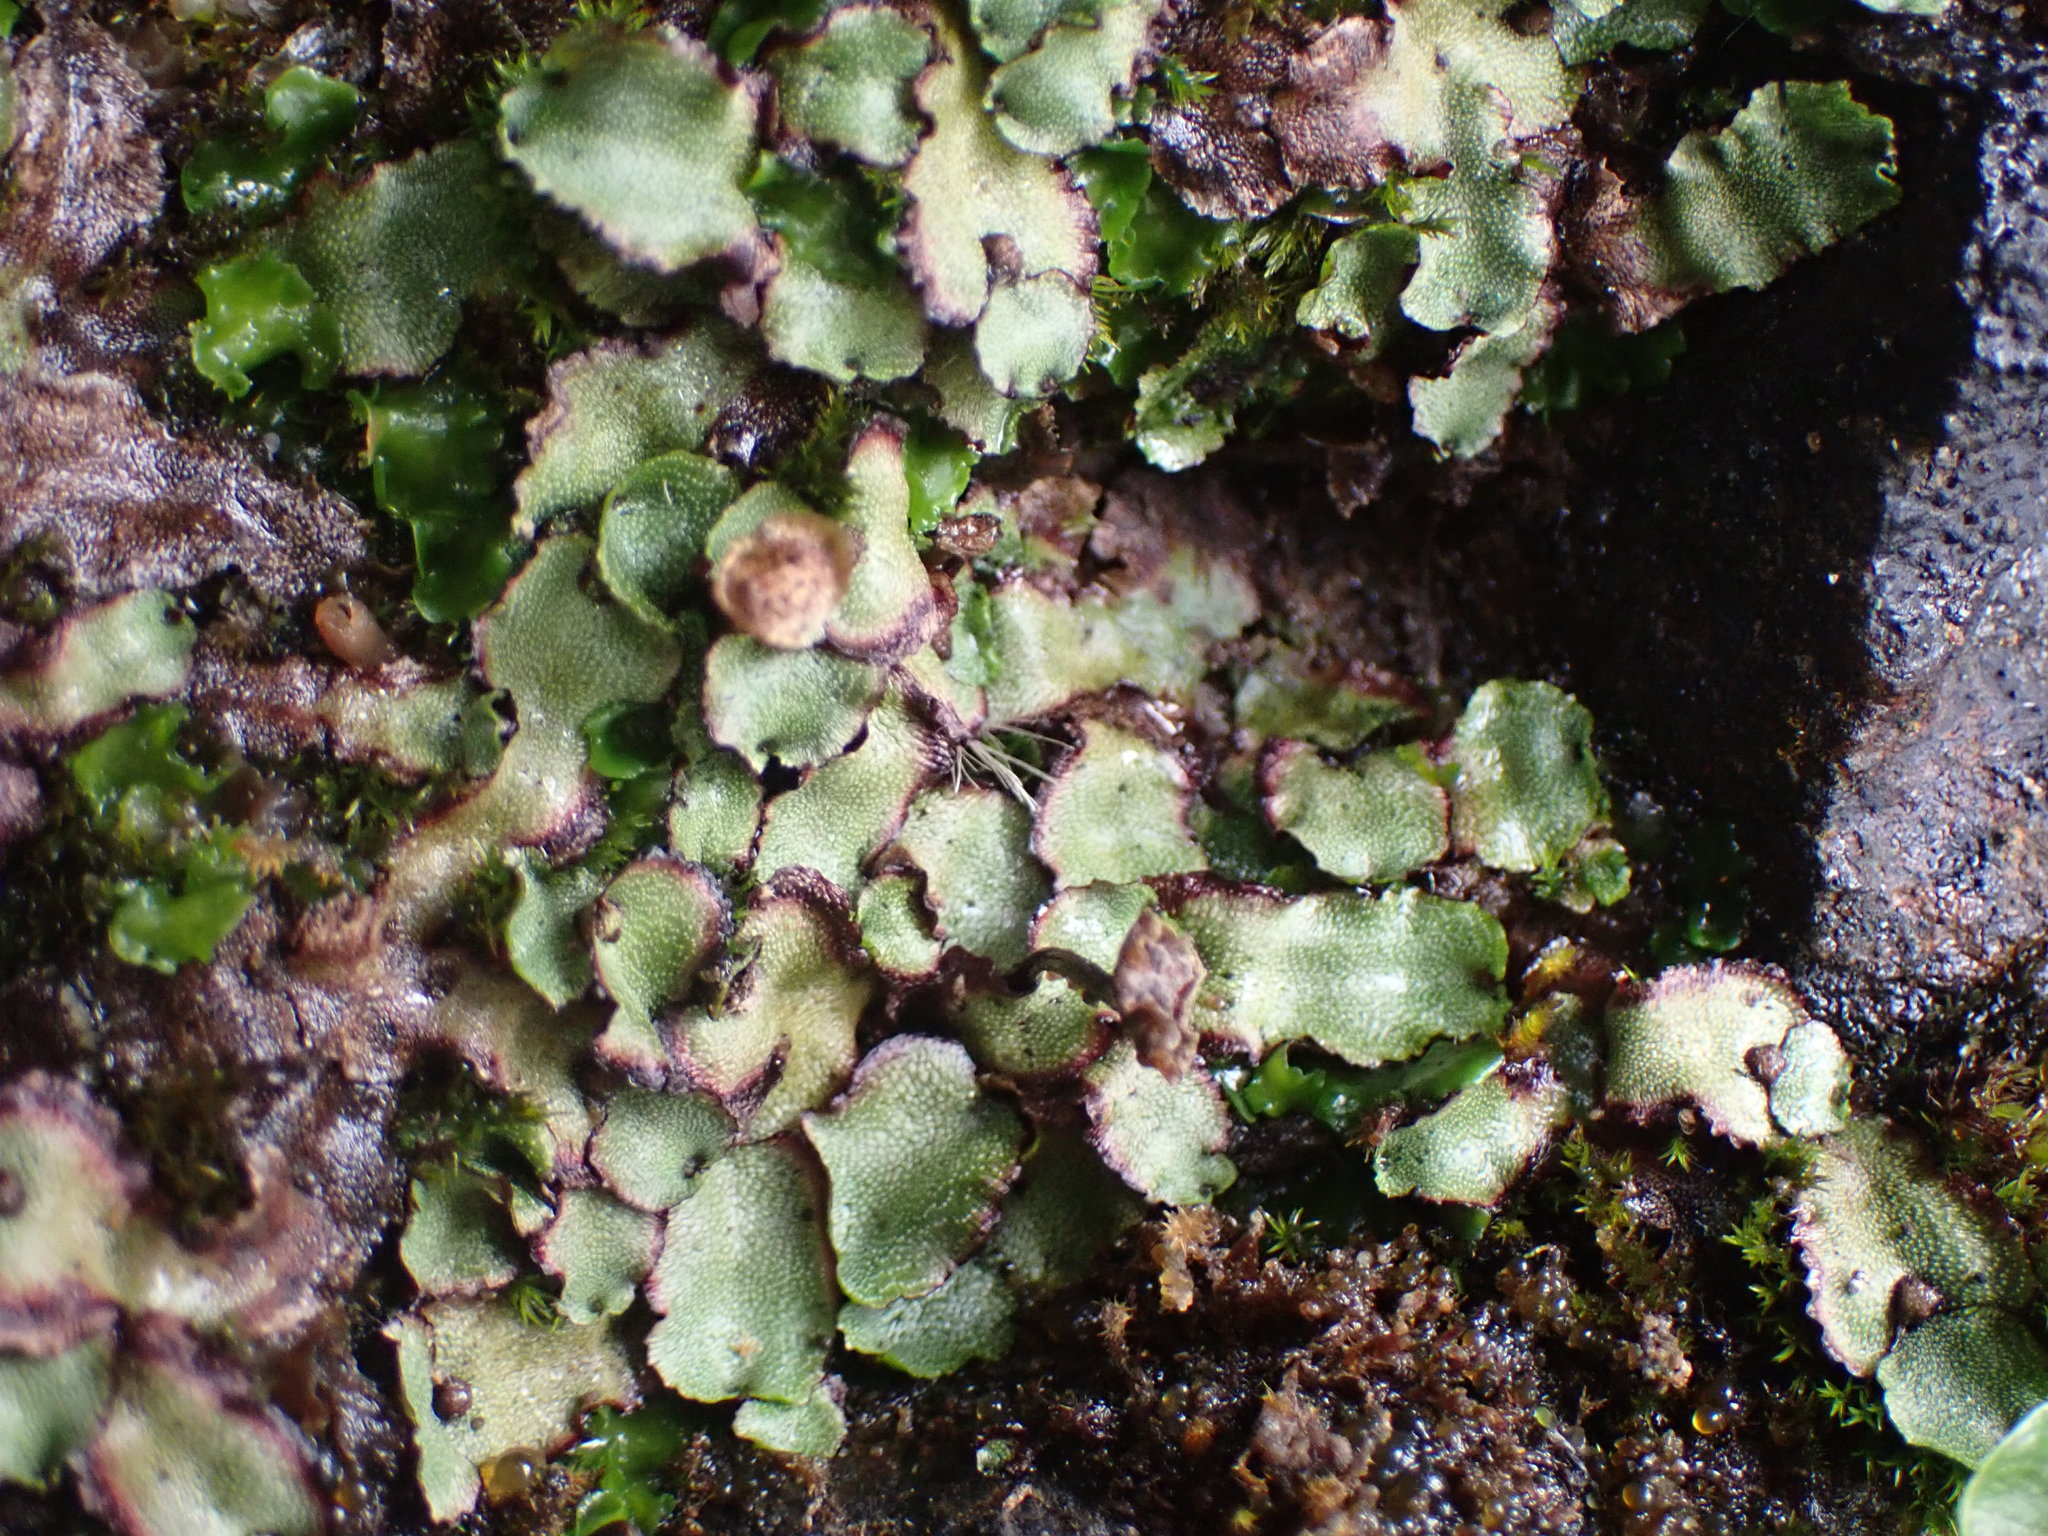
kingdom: Plantae
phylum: Marchantiophyta
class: Marchantiopsida
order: Marchantiales
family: Marchantiaceae
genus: Marchantia
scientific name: Marchantia quadrata
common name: Narrow mushroom-headed liverwort
